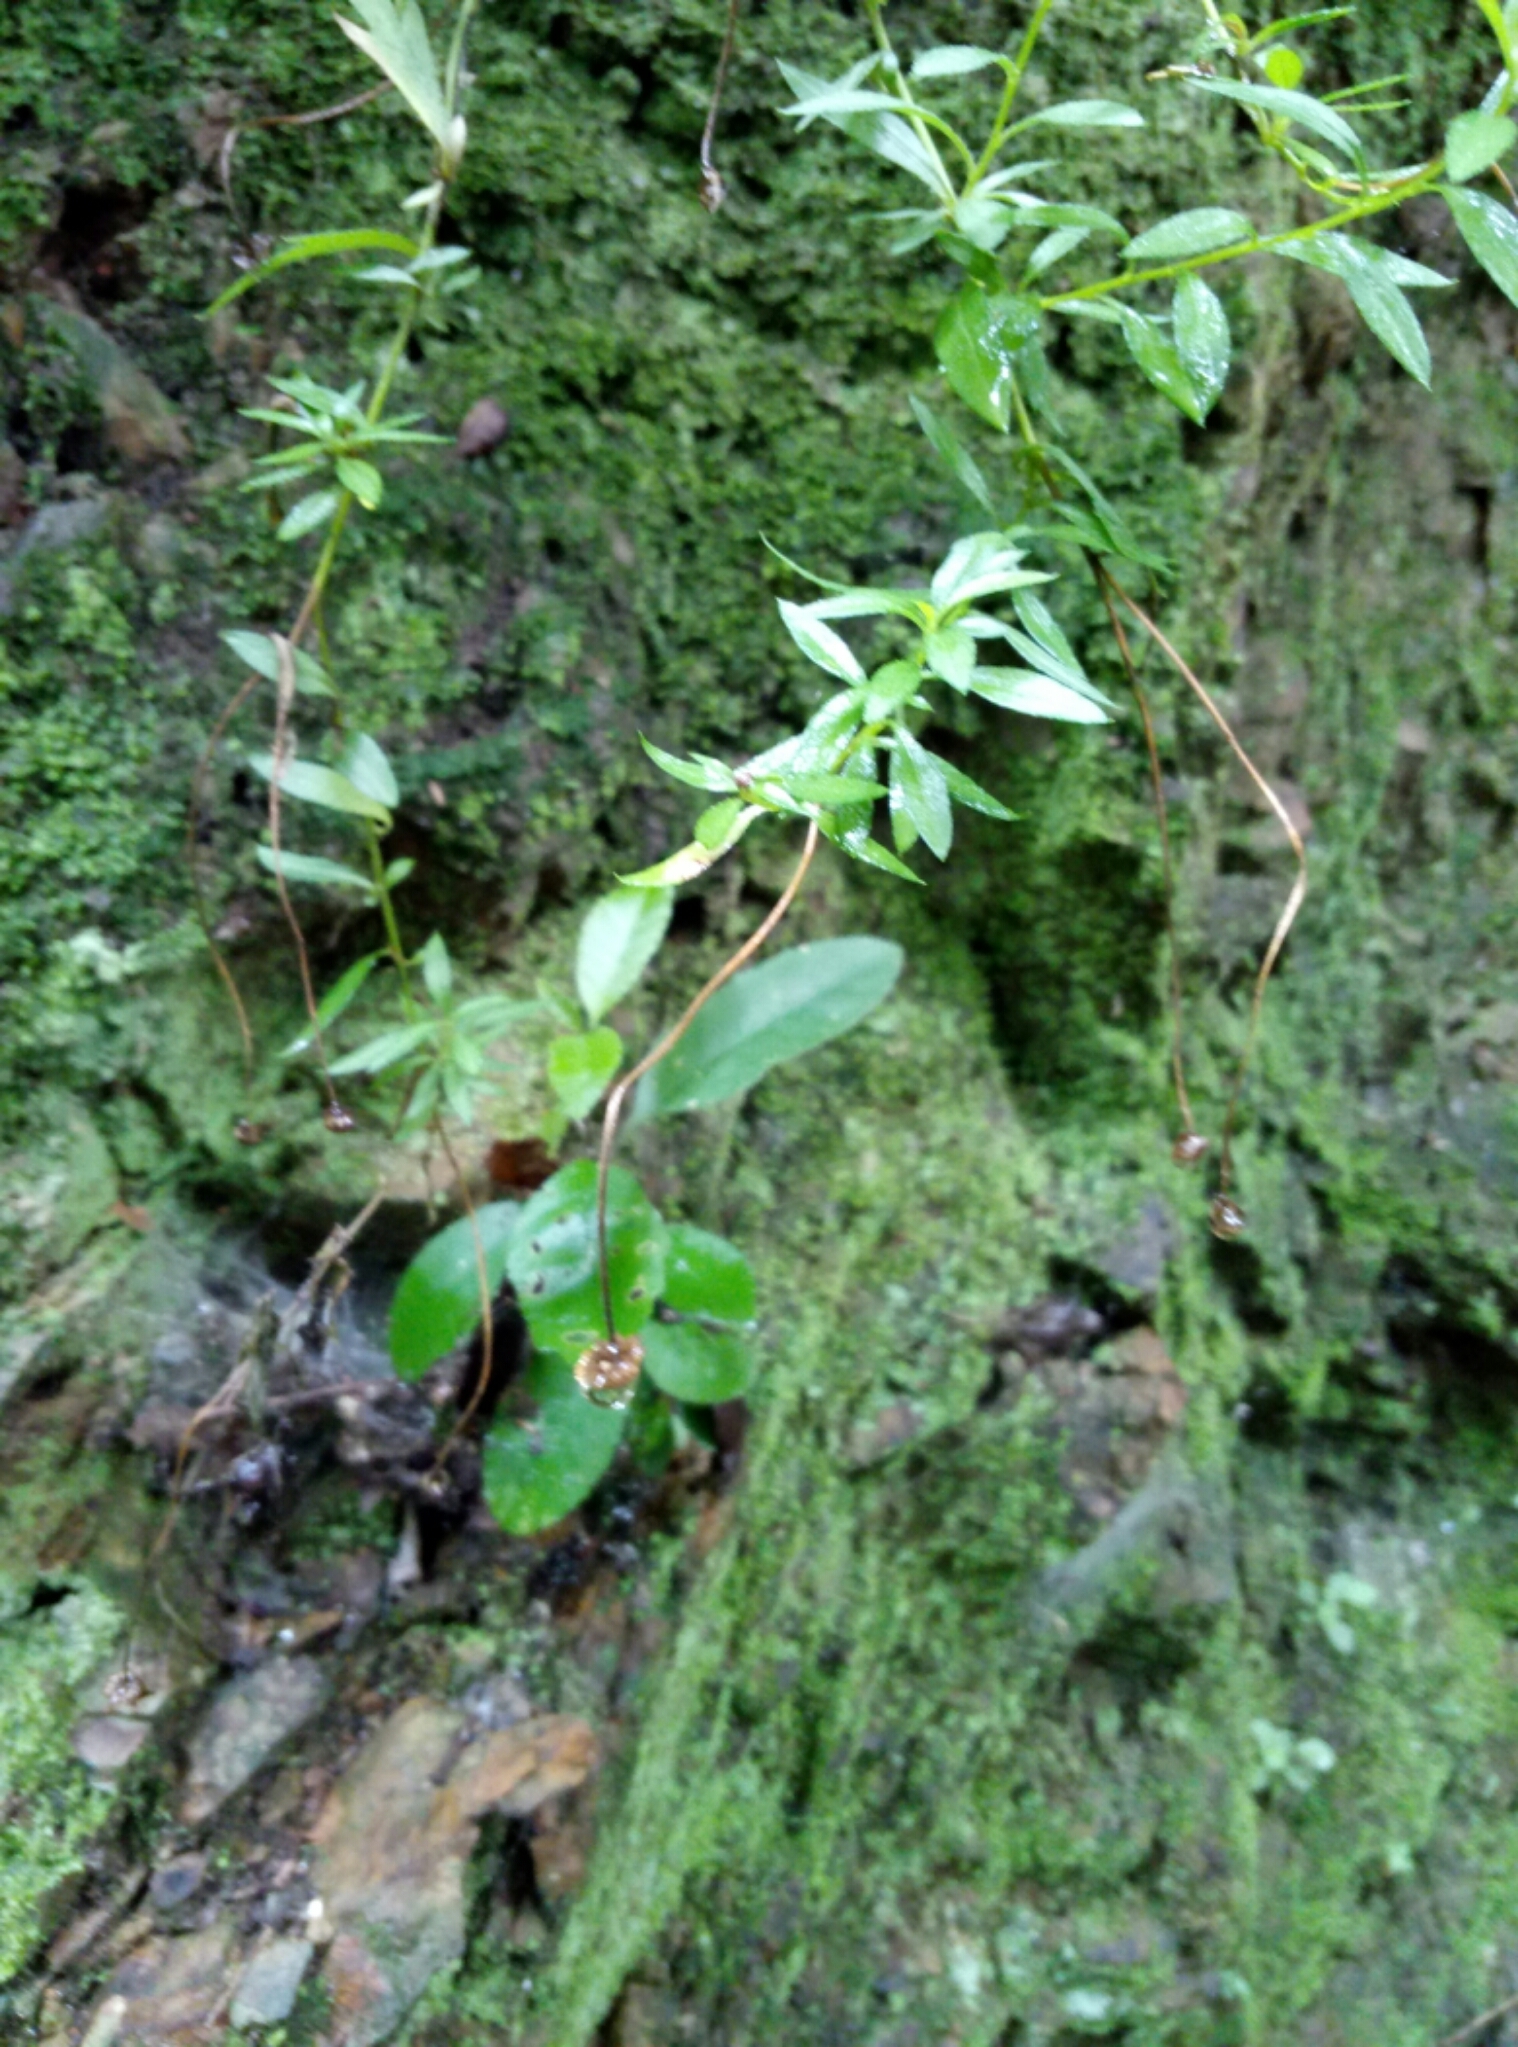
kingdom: Plantae
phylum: Tracheophyta
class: Magnoliopsida
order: Asterales
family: Asteraceae
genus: Erigeron
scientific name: Erigeron karvinskianus
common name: Mexican fleabane
